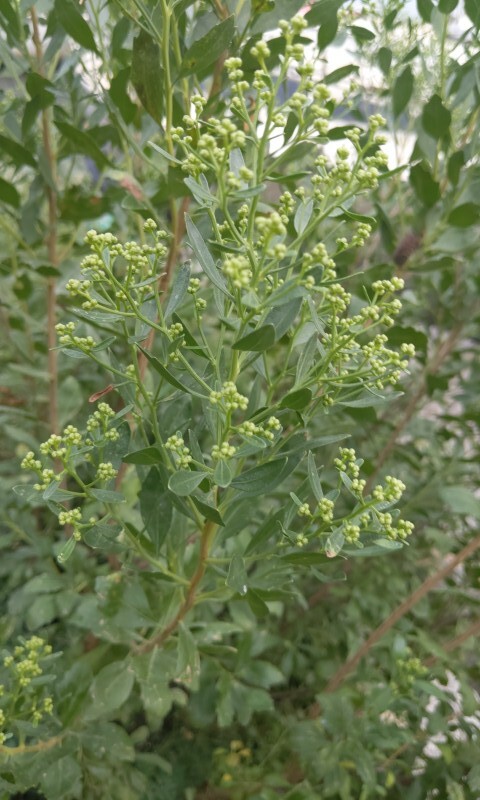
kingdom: Plantae
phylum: Tracheophyta
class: Magnoliopsida
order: Asterales
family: Asteraceae
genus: Baccharis
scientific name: Baccharis halimifolia
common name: Eastern baccharis
